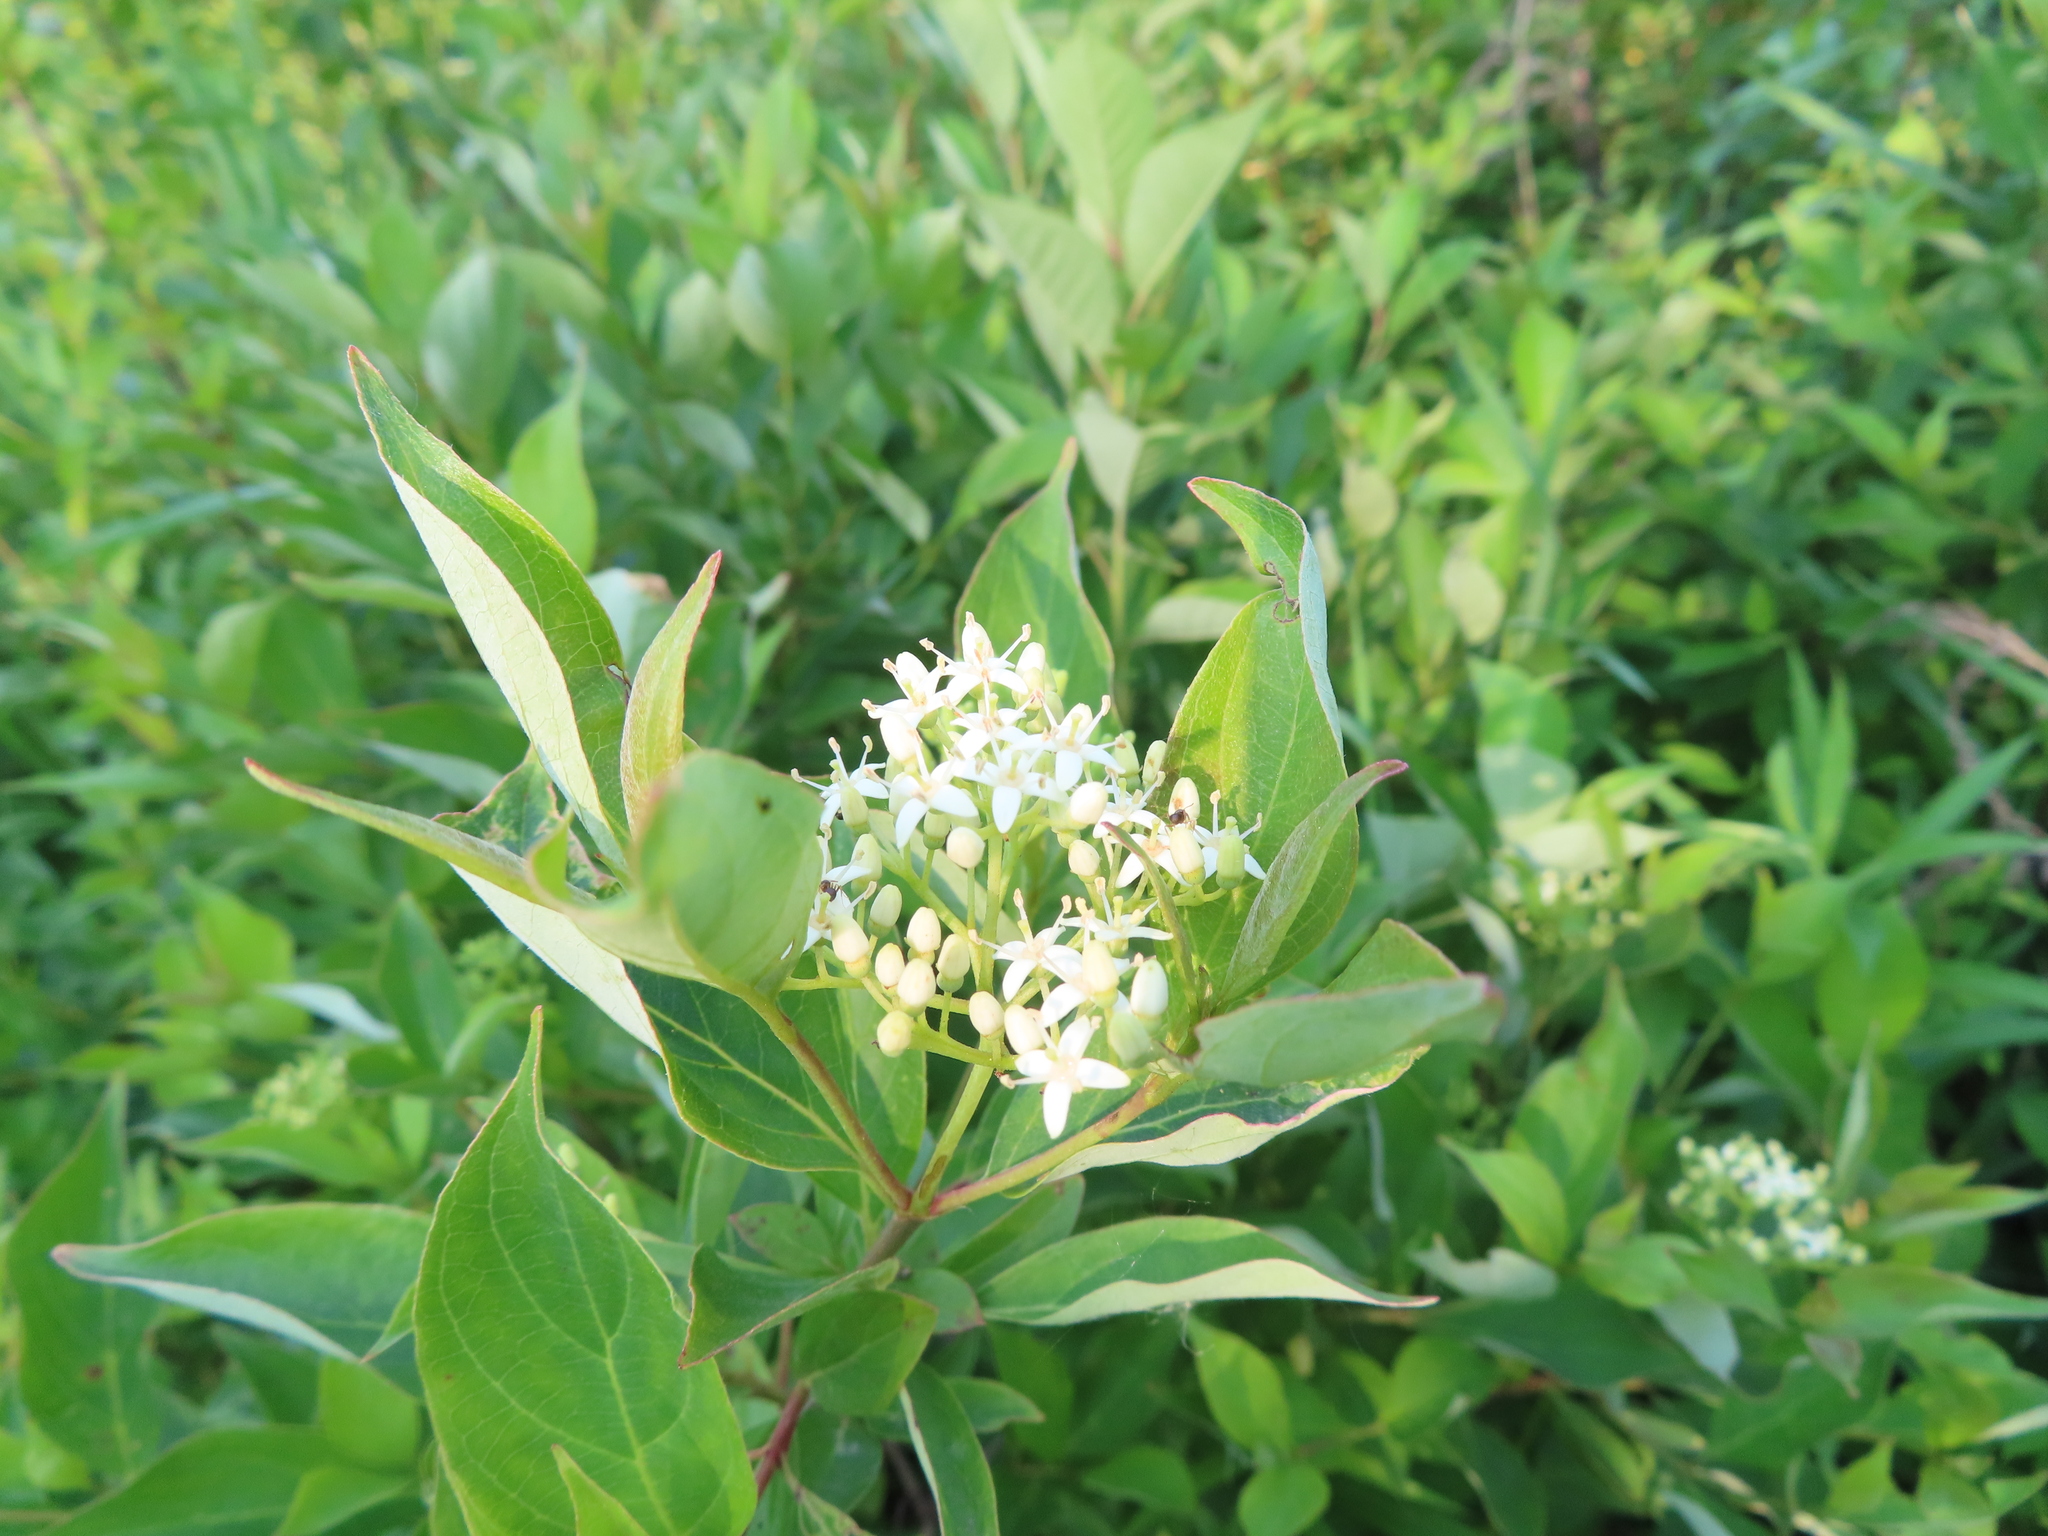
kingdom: Plantae
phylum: Tracheophyta
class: Magnoliopsida
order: Cornales
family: Cornaceae
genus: Cornus
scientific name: Cornus racemosa
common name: Panicled dogwood
